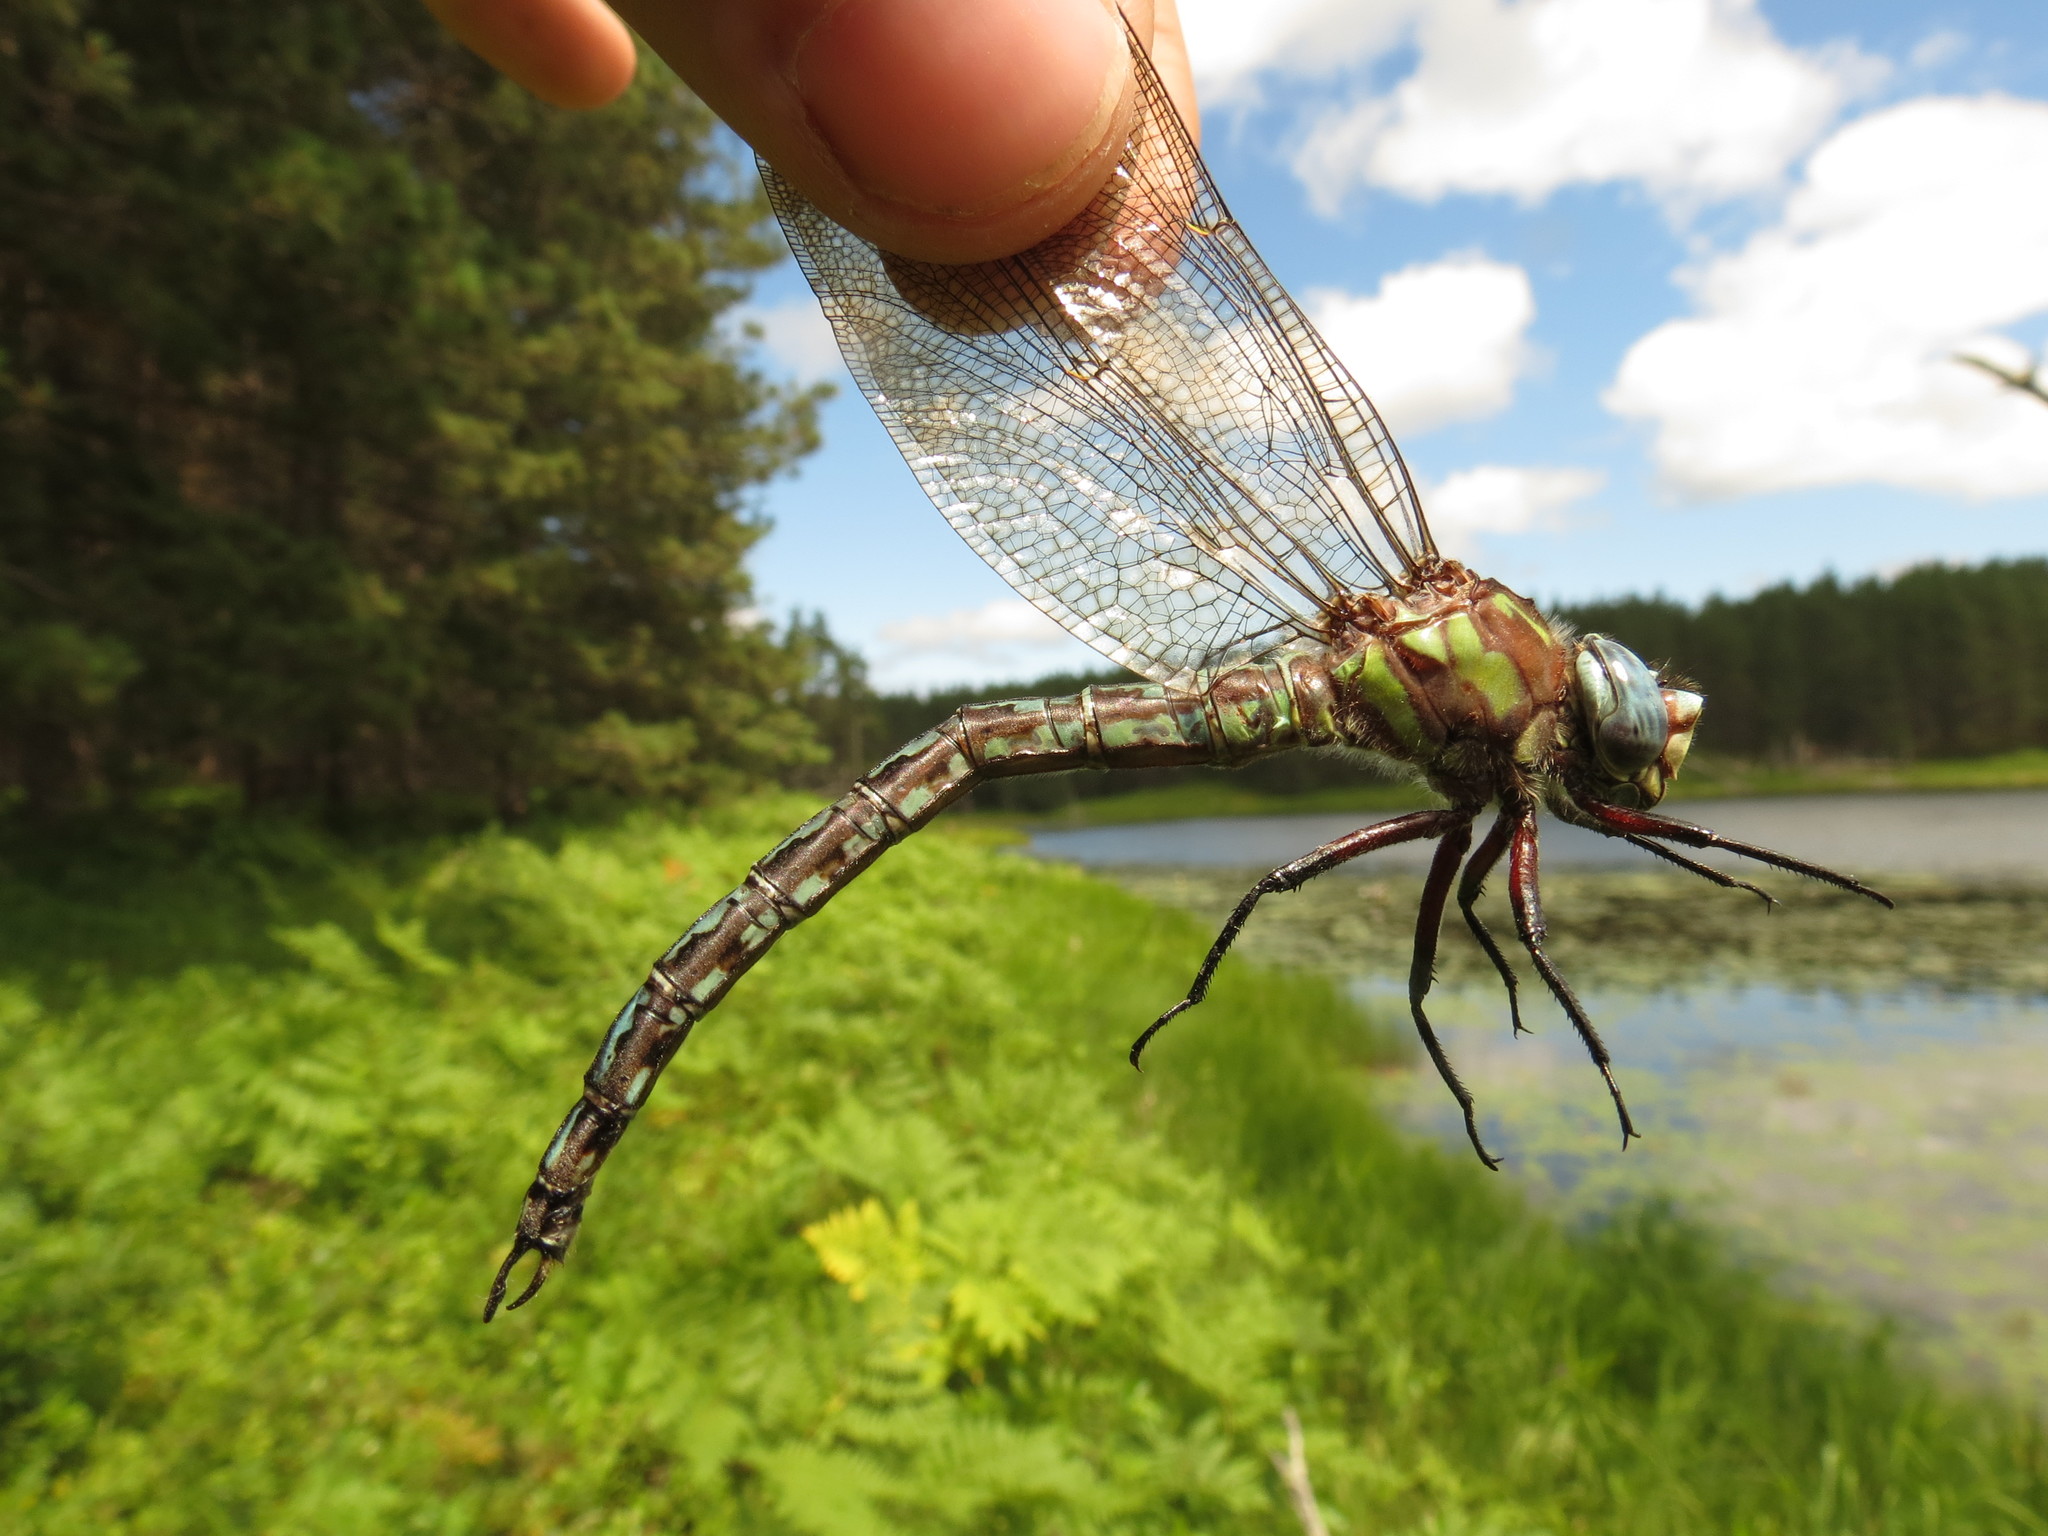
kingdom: Animalia
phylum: Arthropoda
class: Insecta
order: Odonata
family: Aeshnidae
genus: Nasiaeschna
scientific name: Nasiaeschna pentacantha
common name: Cyrano darner
